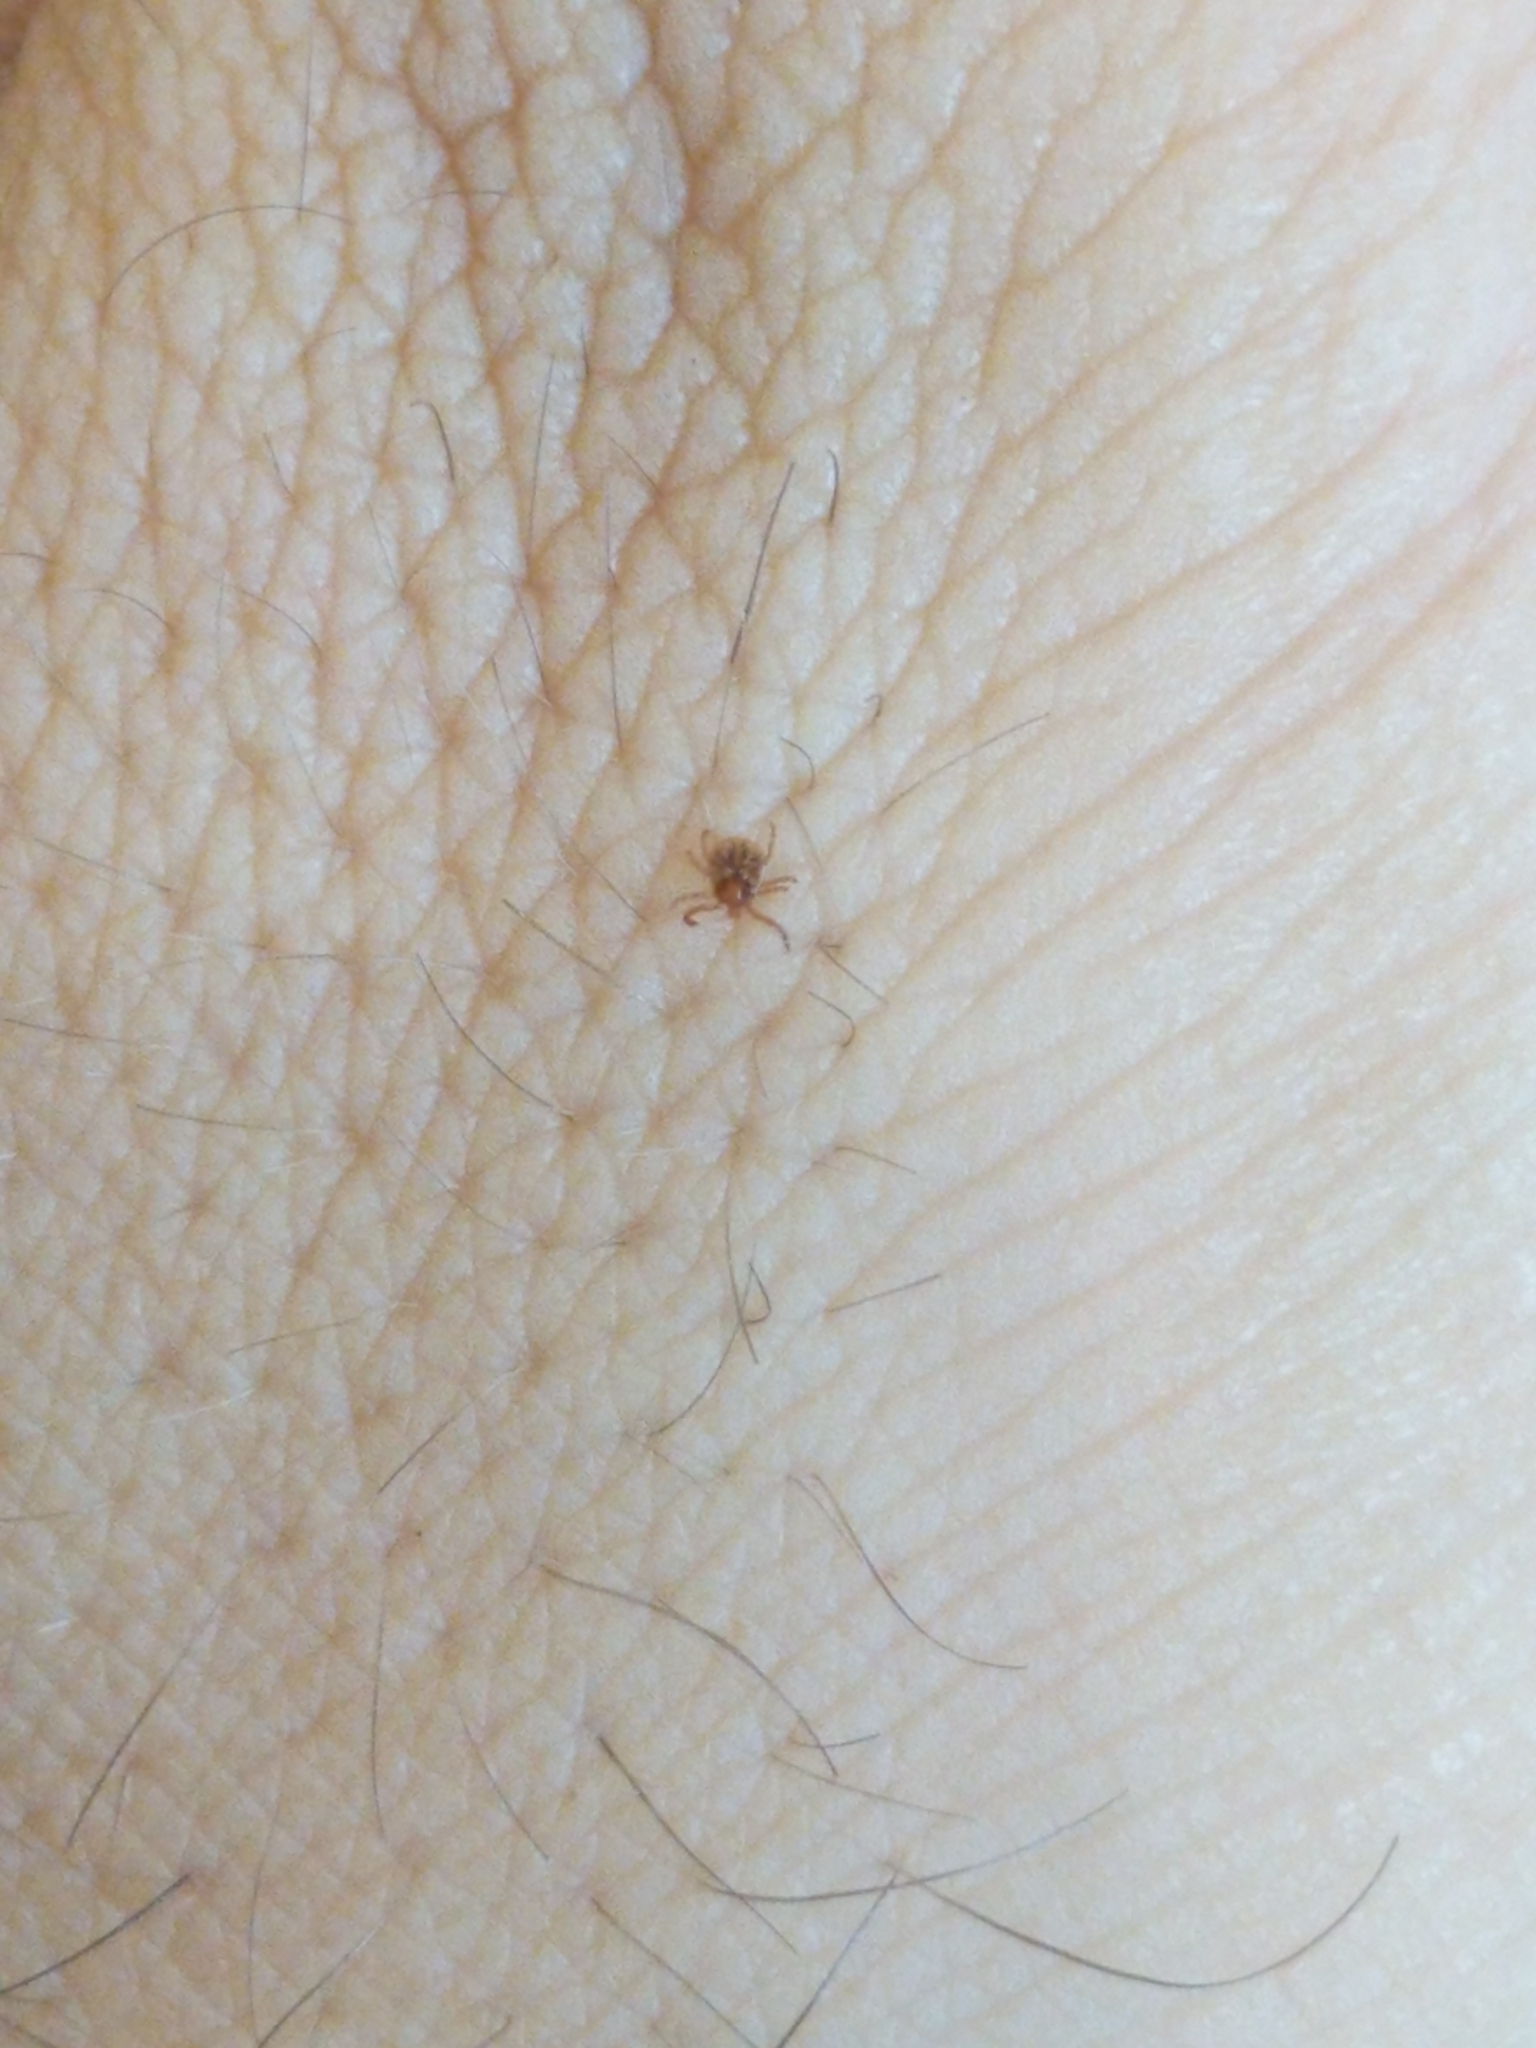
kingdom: Animalia
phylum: Arthropoda
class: Arachnida
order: Ixodida
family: Ixodidae
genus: Amblyomma
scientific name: Amblyomma americanum
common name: Lone star tick
